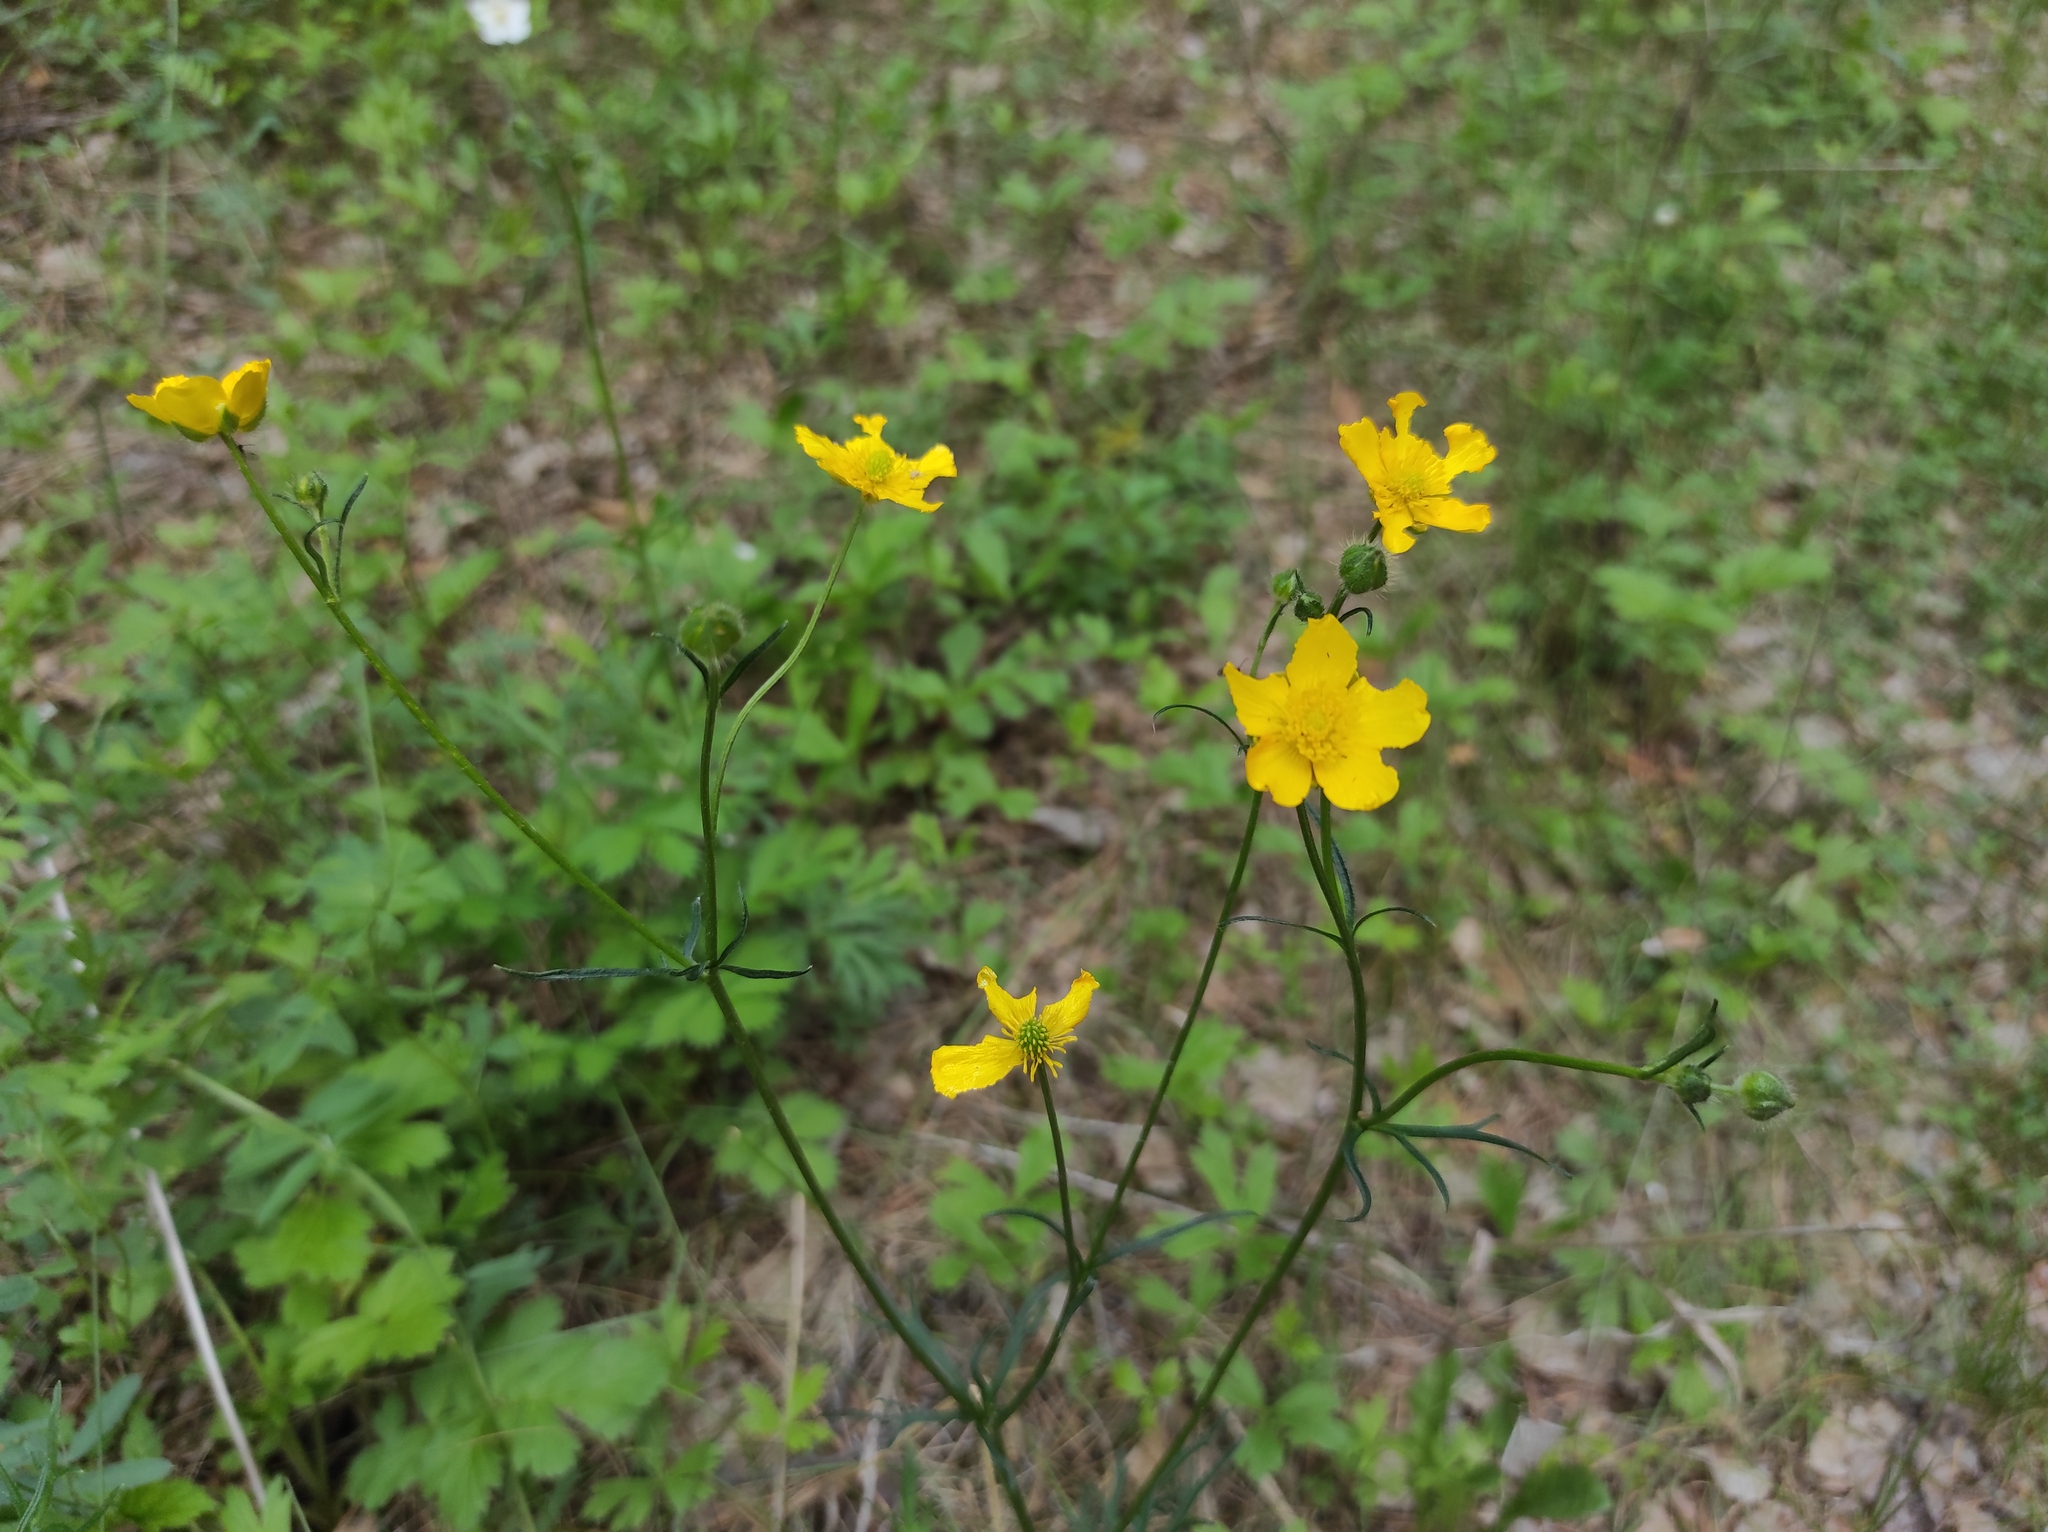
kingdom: Plantae
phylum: Tracheophyta
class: Magnoliopsida
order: Ranunculales
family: Ranunculaceae
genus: Ranunculus
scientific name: Ranunculus polyanthemos
